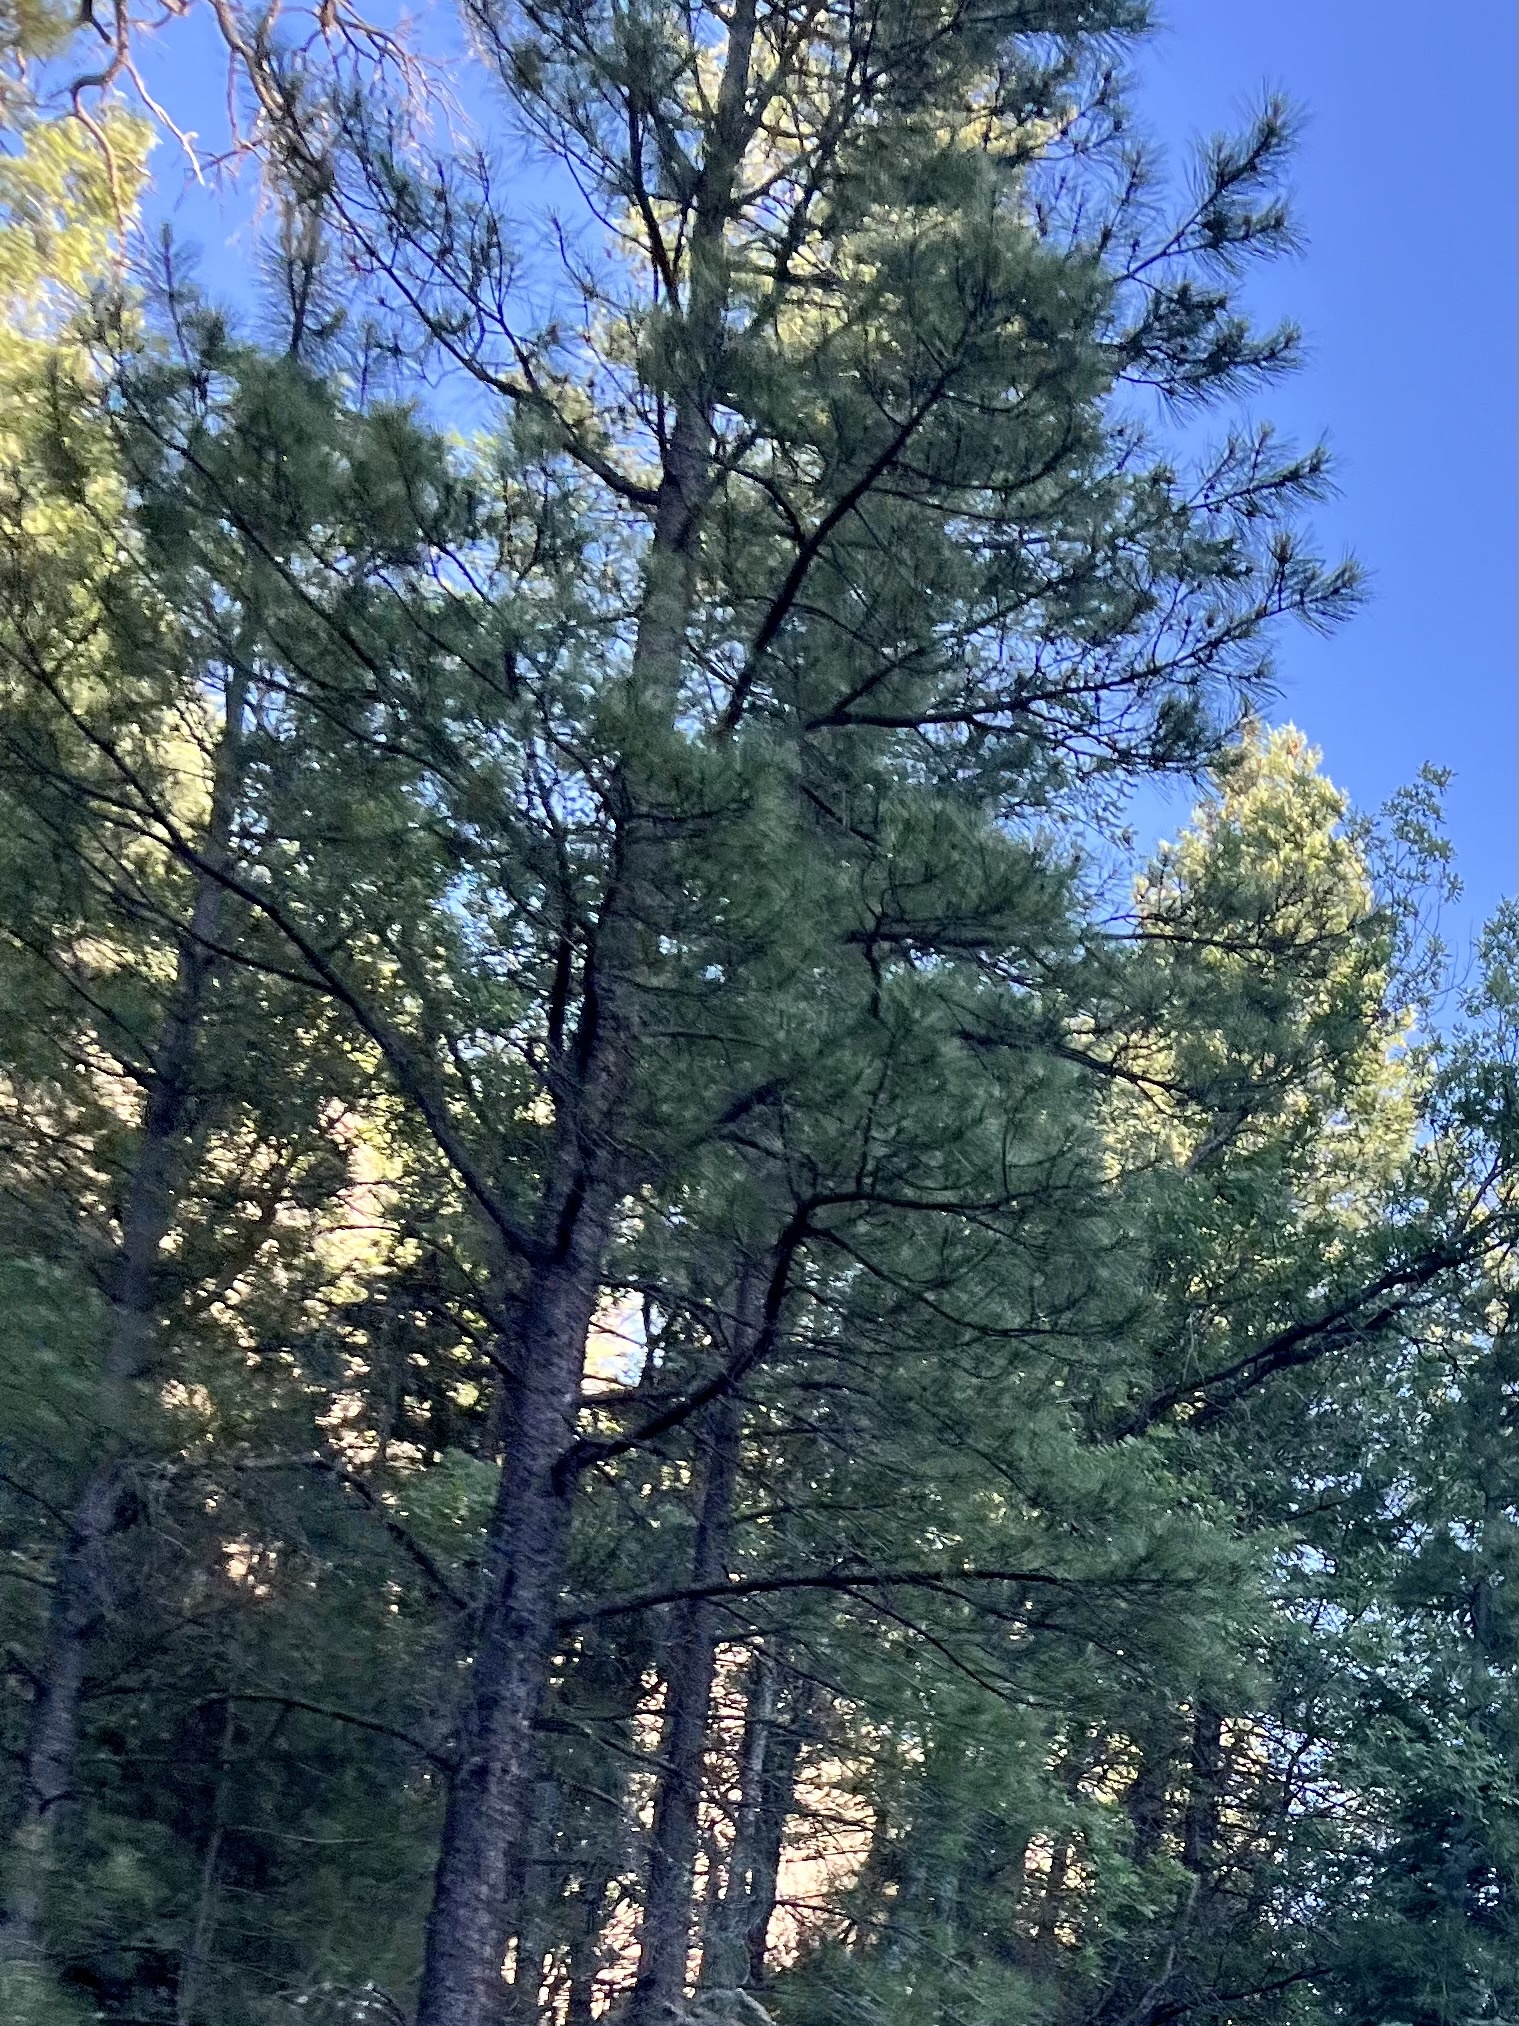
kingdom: Plantae
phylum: Tracheophyta
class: Pinopsida
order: Pinales
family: Pinaceae
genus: Pinus
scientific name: Pinus ponderosa
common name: Western yellow-pine
